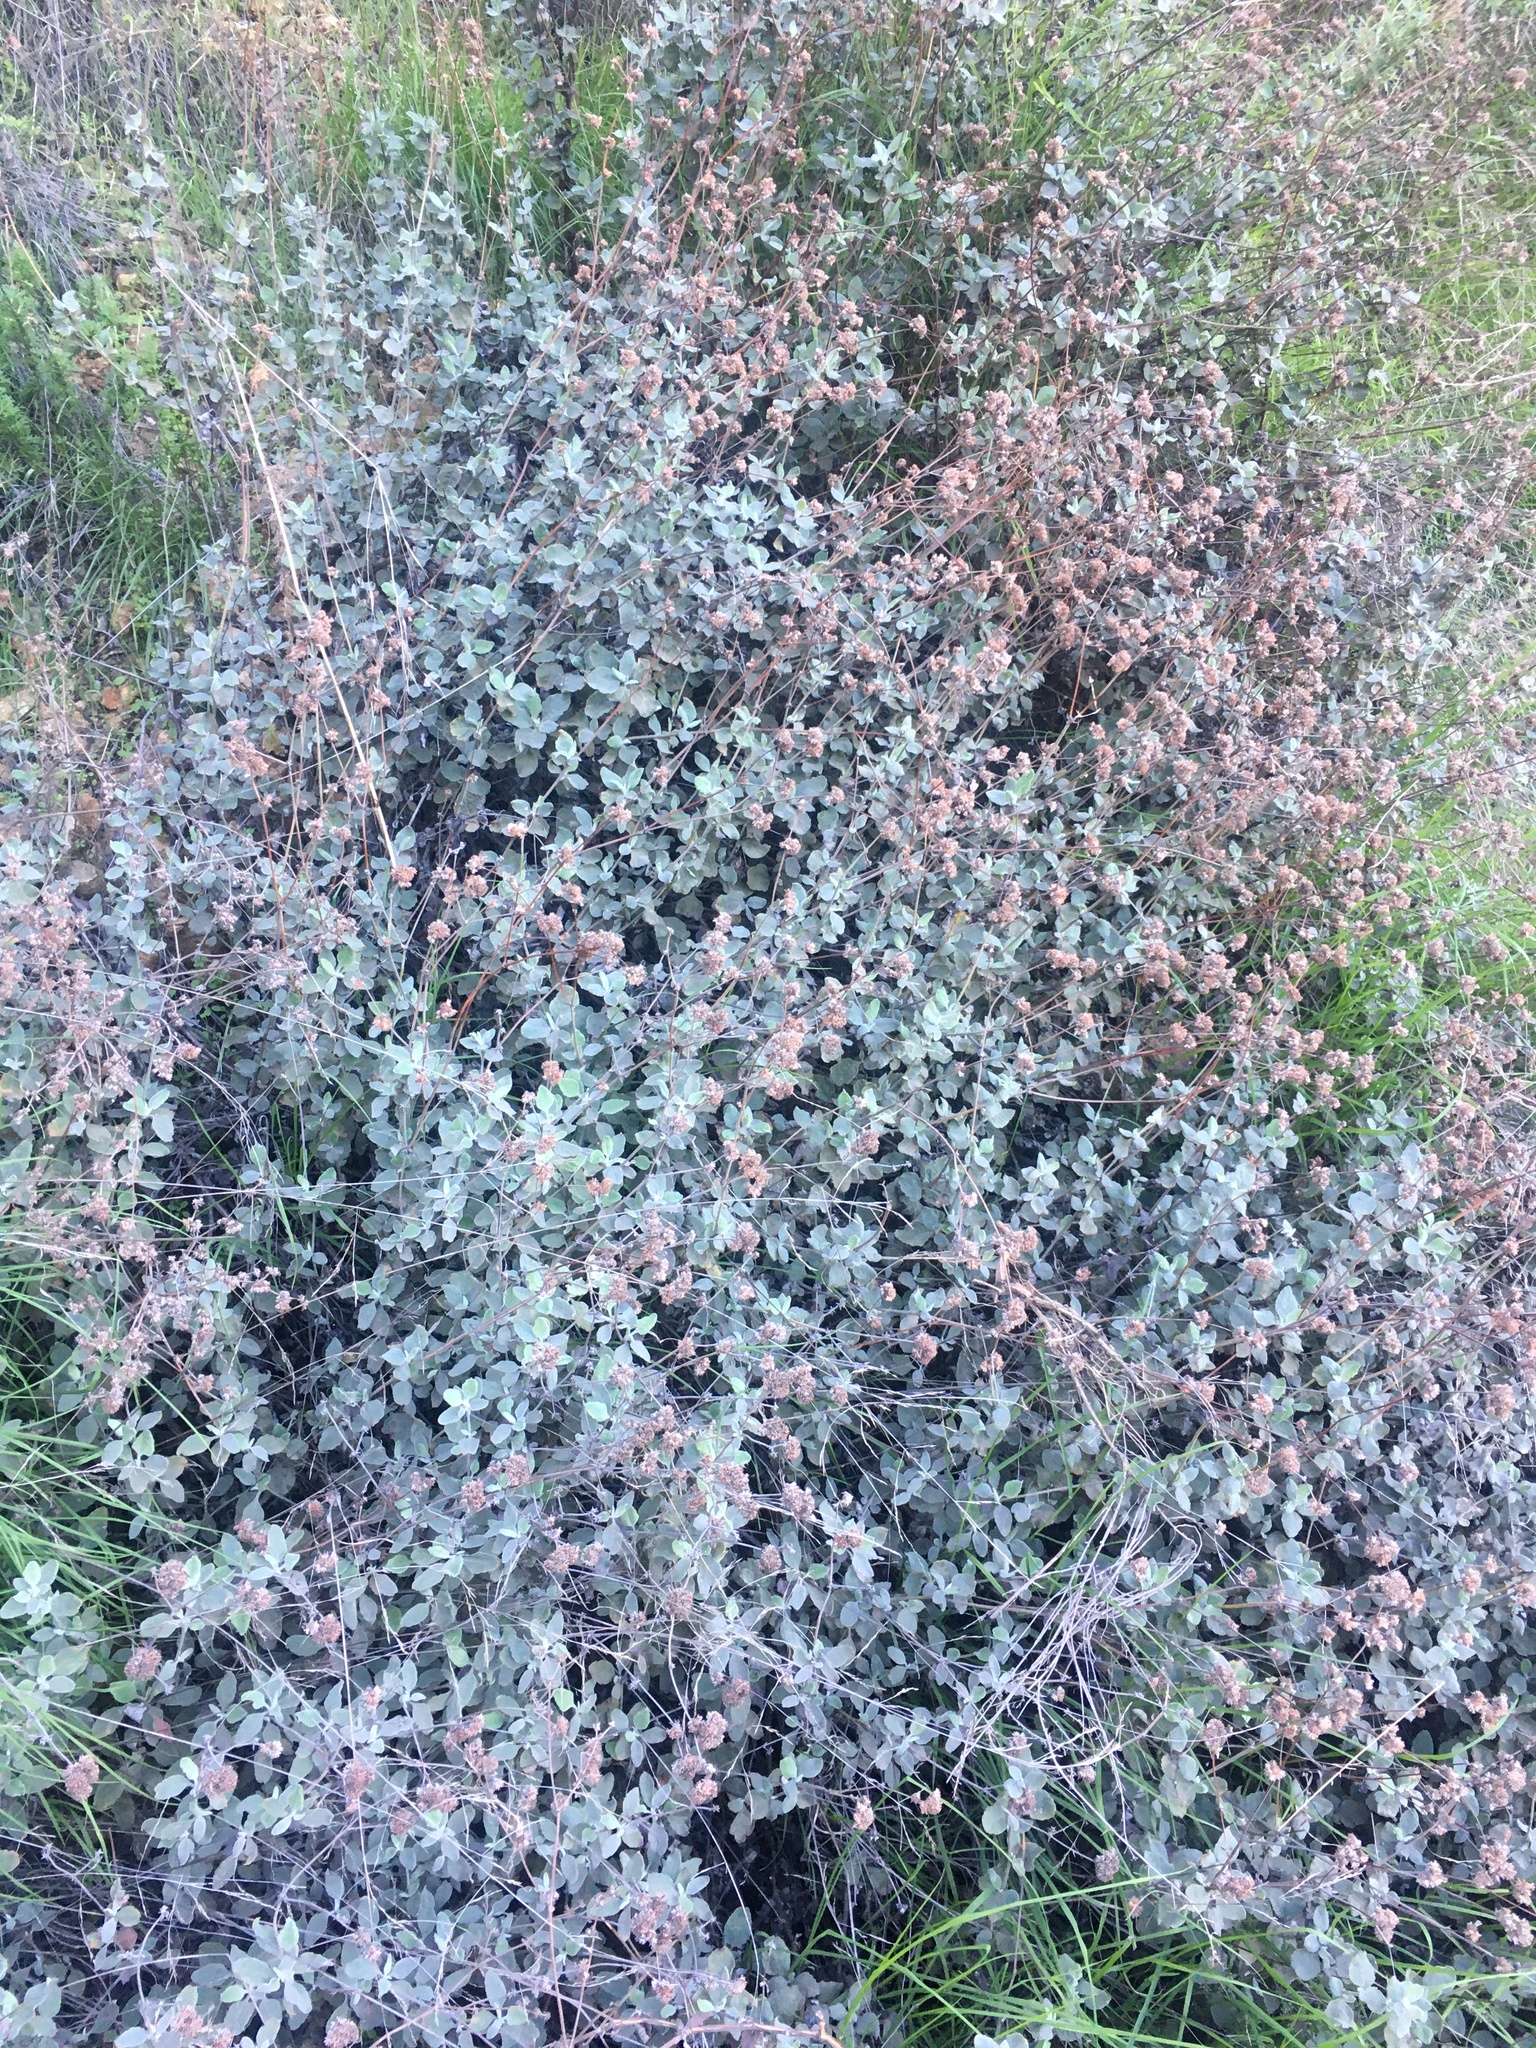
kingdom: Plantae
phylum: Tracheophyta
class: Magnoliopsida
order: Caryophyllales
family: Polygonaceae
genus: Eriogonum
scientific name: Eriogonum cinereum
